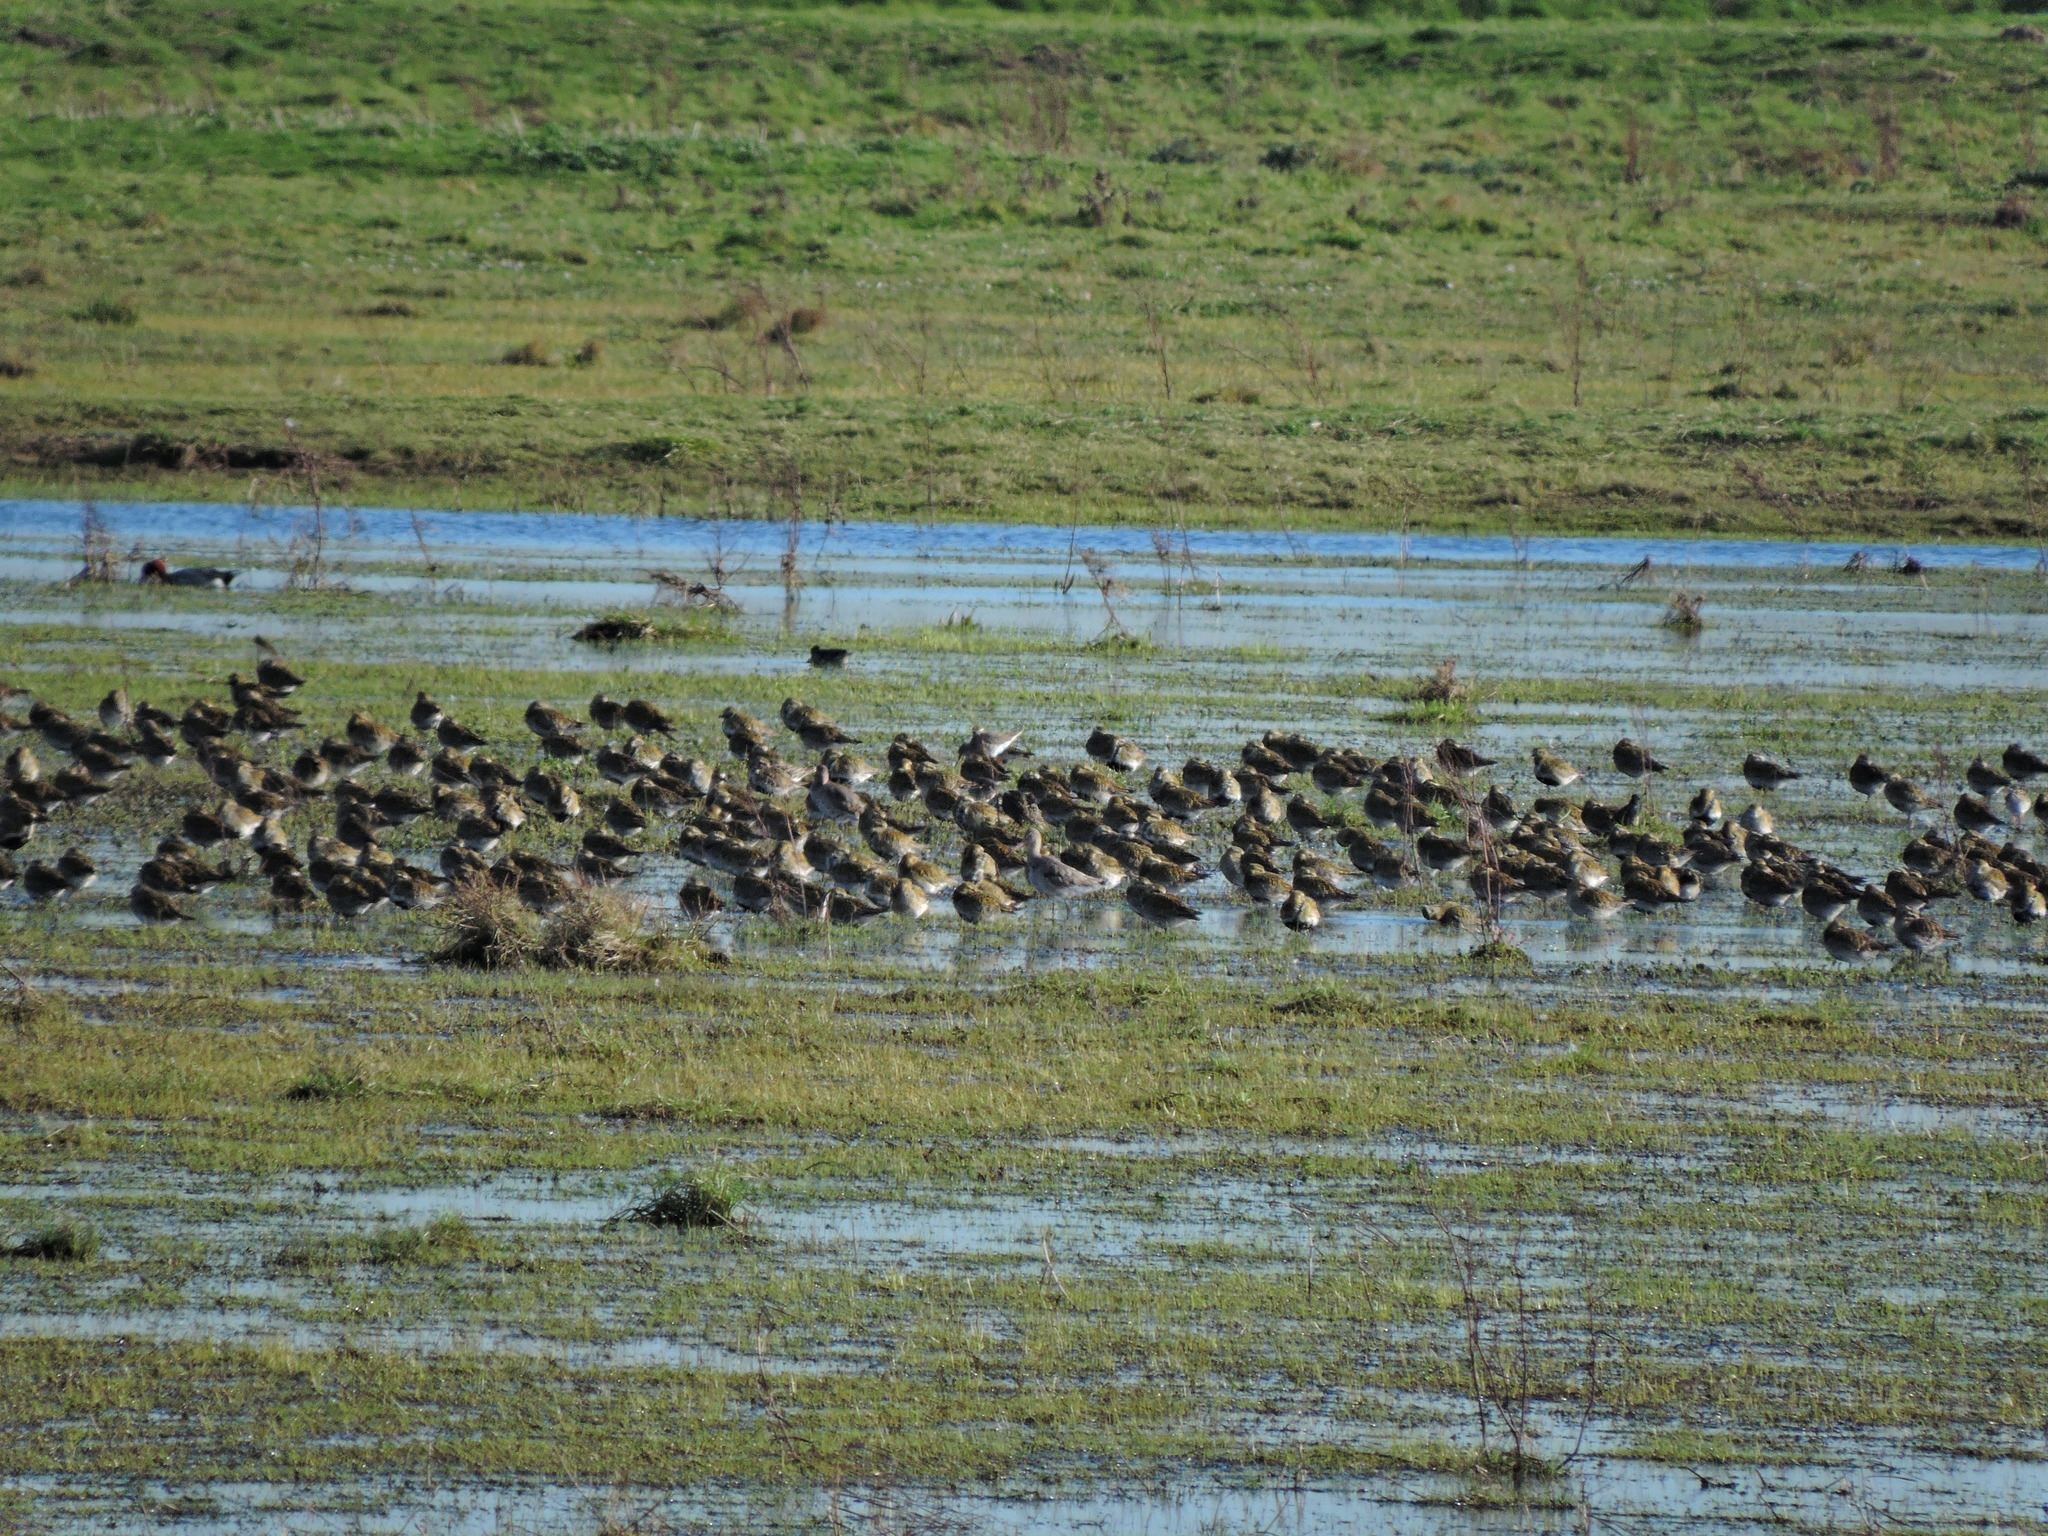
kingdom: Animalia
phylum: Chordata
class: Aves
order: Charadriiformes
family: Charadriidae
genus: Pluvialis
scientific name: Pluvialis apricaria
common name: European golden plover
